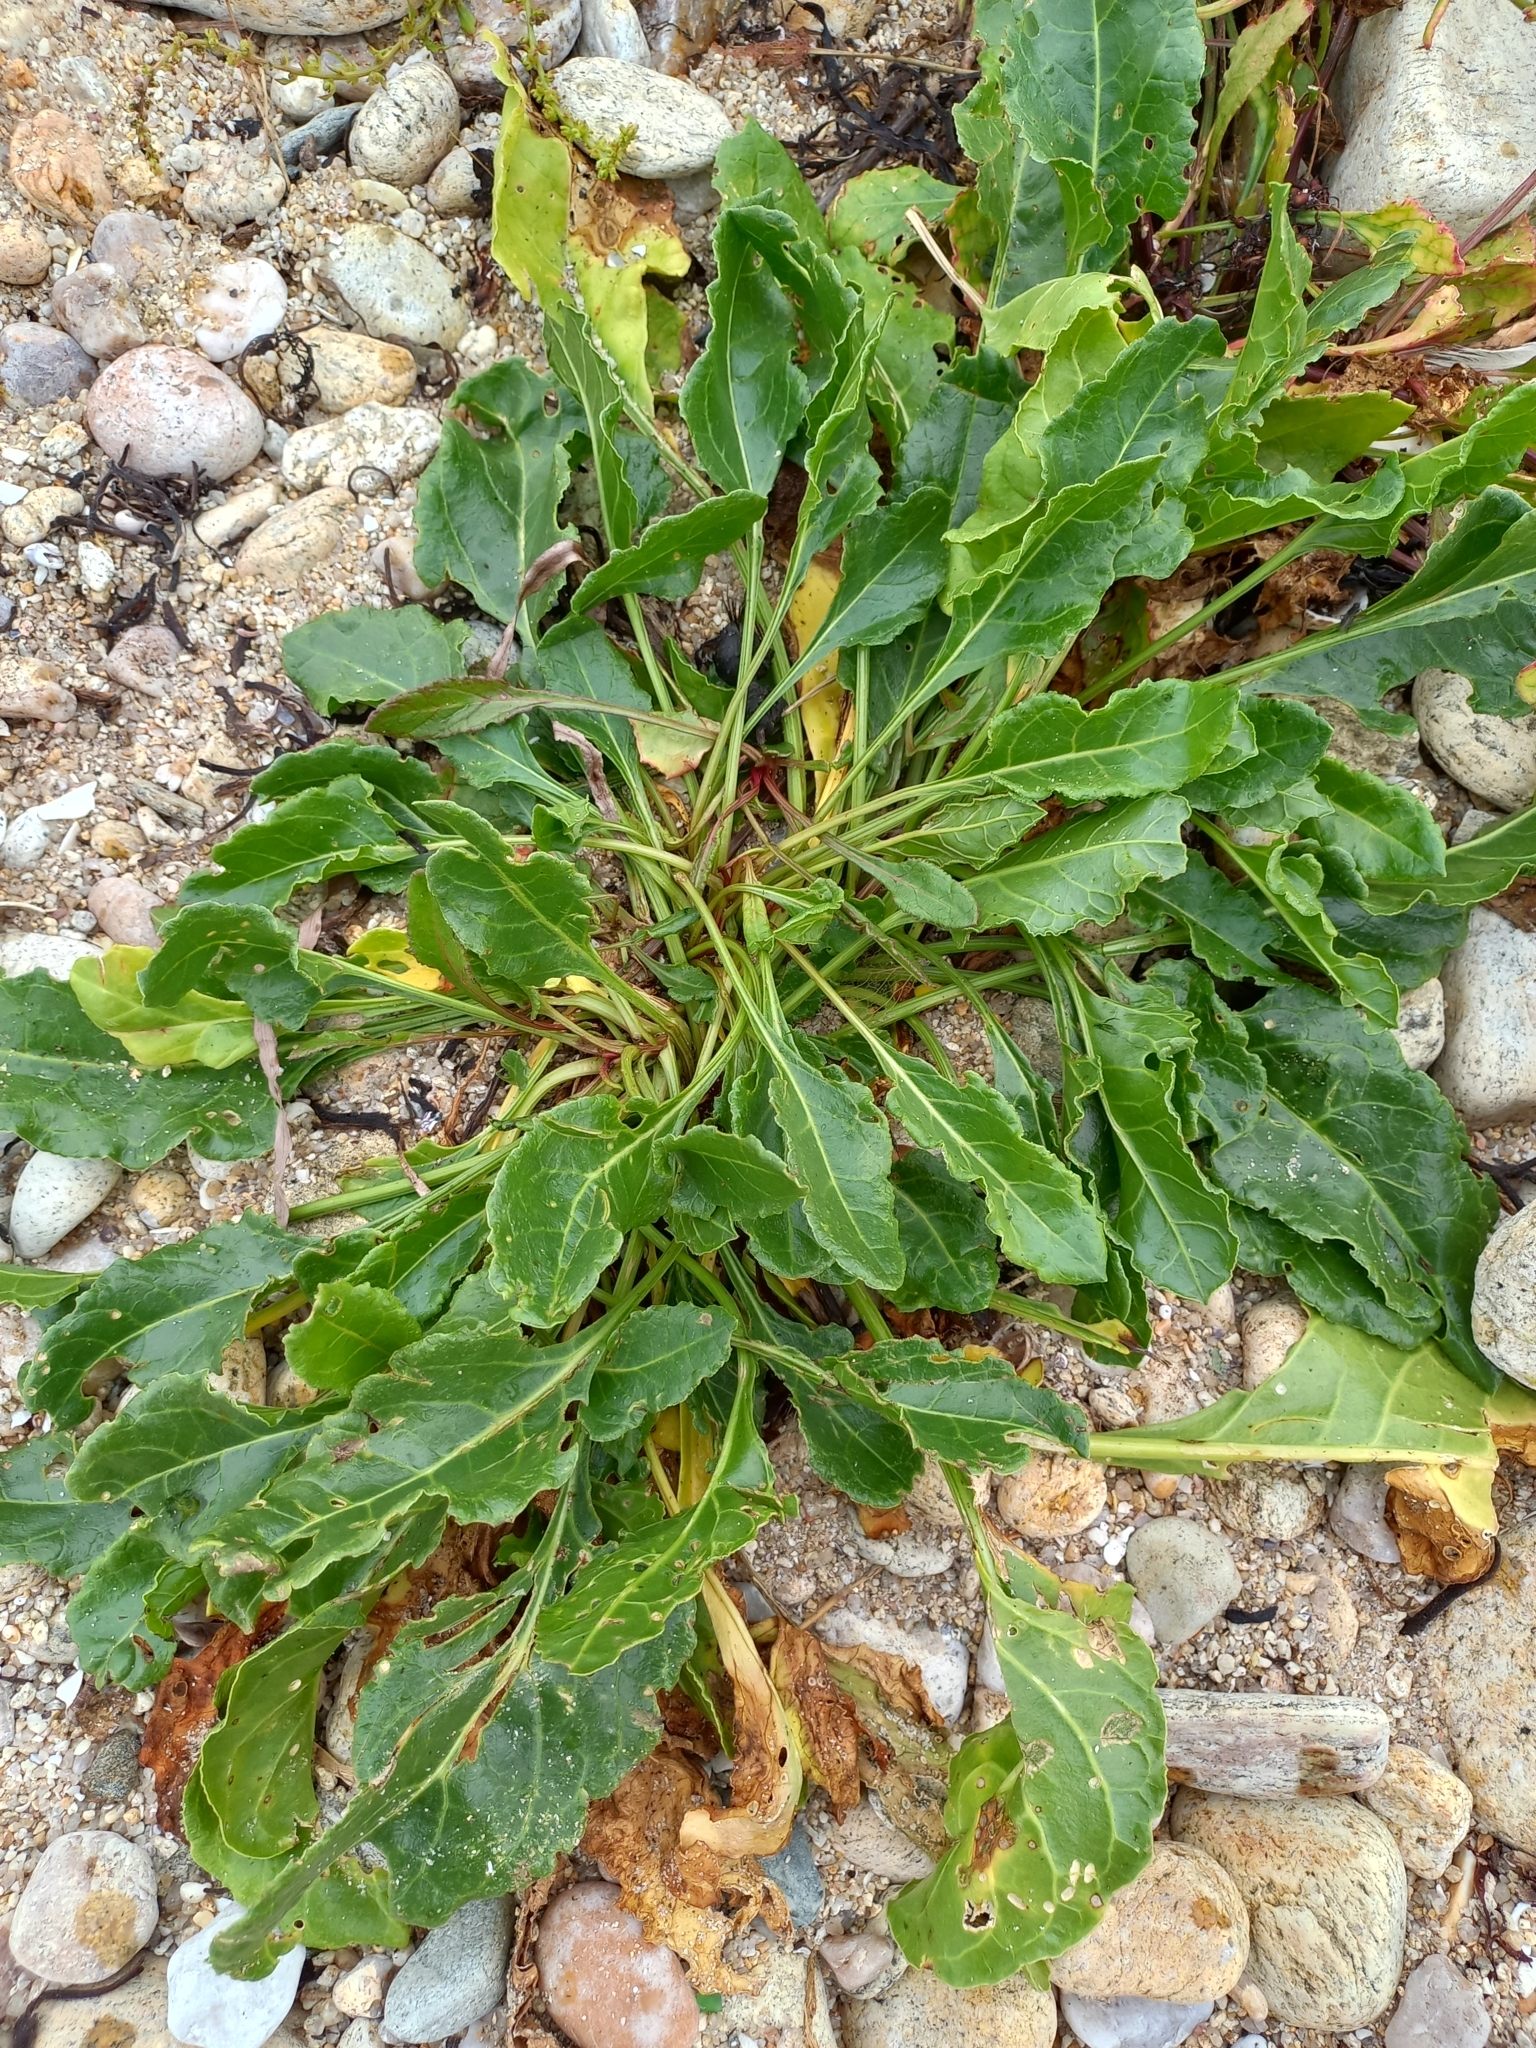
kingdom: Plantae
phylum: Tracheophyta
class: Magnoliopsida
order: Caryophyllales
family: Amaranthaceae
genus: Beta
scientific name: Beta vulgaris
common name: Beet
